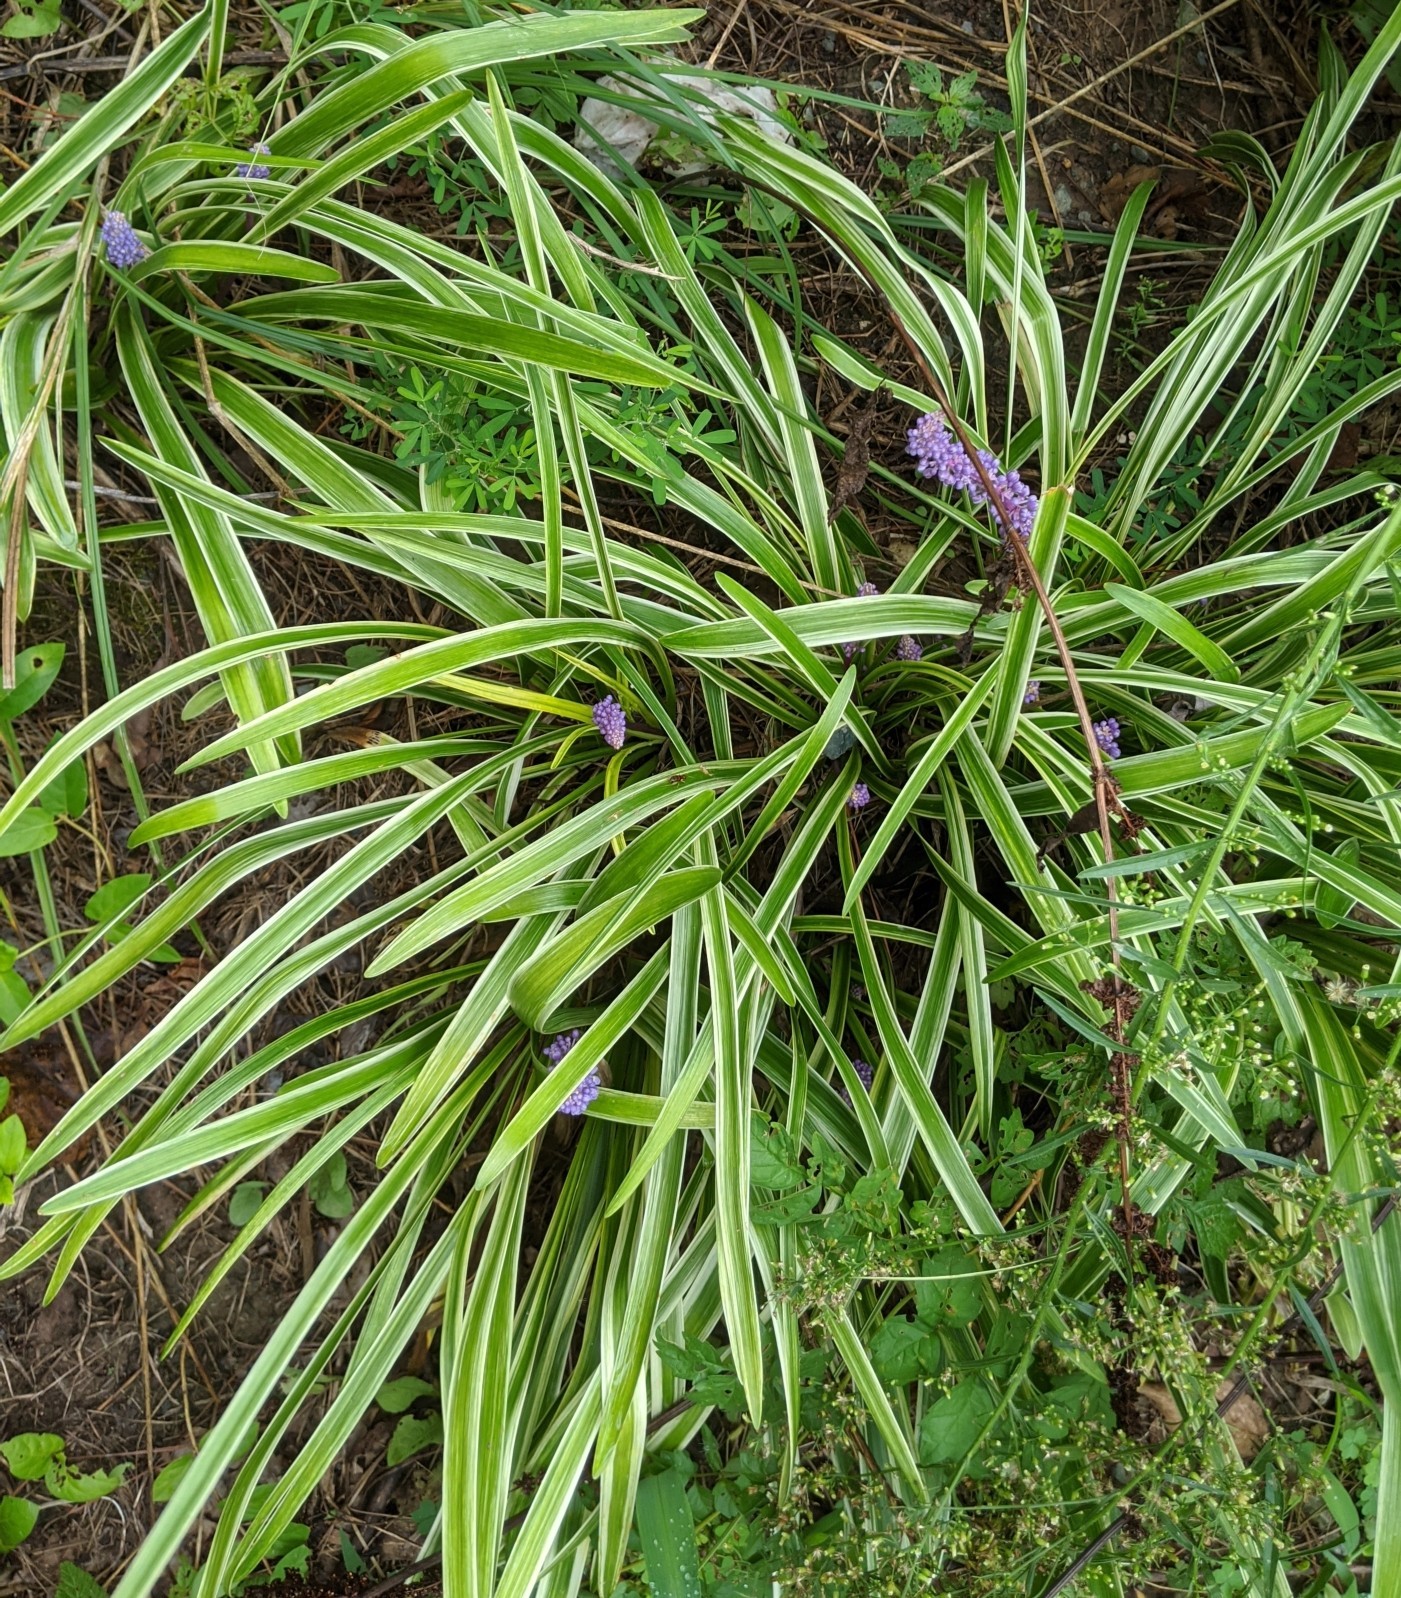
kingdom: Plantae
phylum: Tracheophyta
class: Liliopsida
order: Asparagales
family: Asparagaceae
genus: Liriope
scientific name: Liriope muscari
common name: Big blue lilyturf
